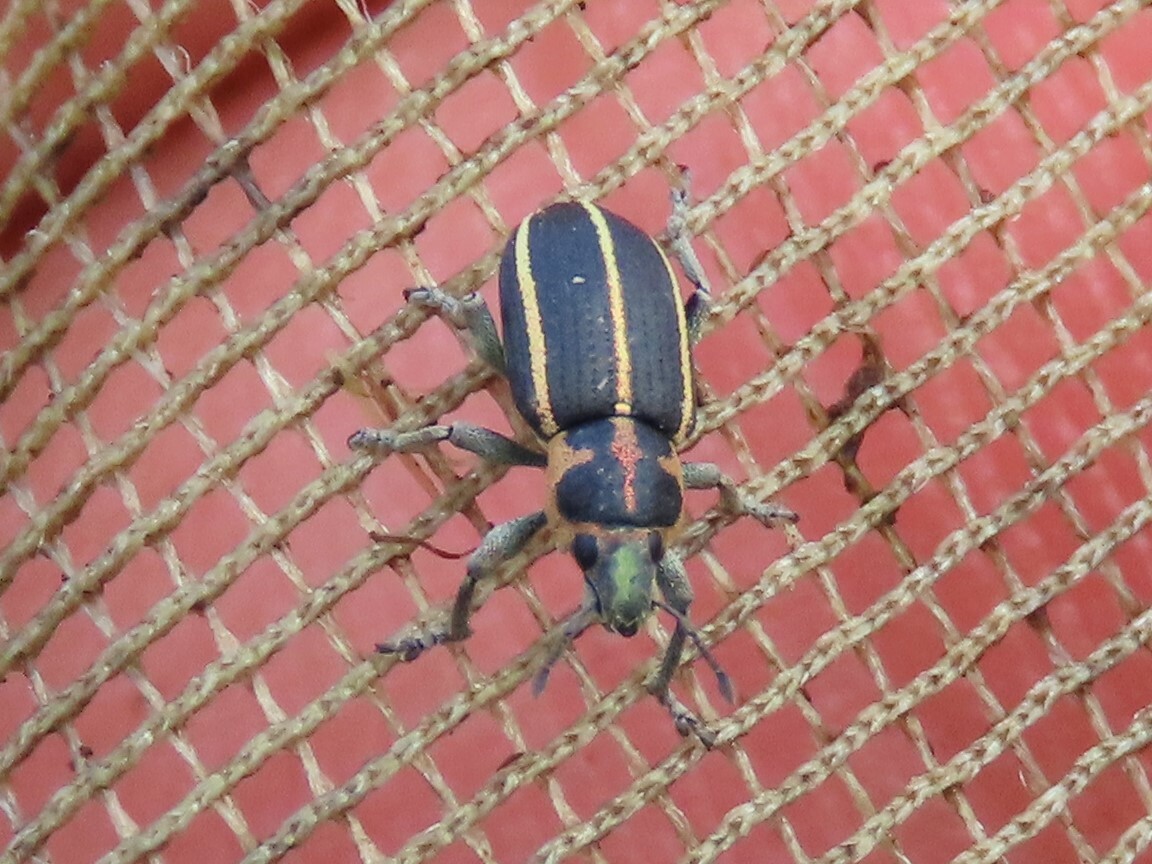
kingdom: Animalia
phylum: Arthropoda
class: Insecta
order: Coleoptera
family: Curculionidae
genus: Eudiagogus
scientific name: Eudiagogus maryae
